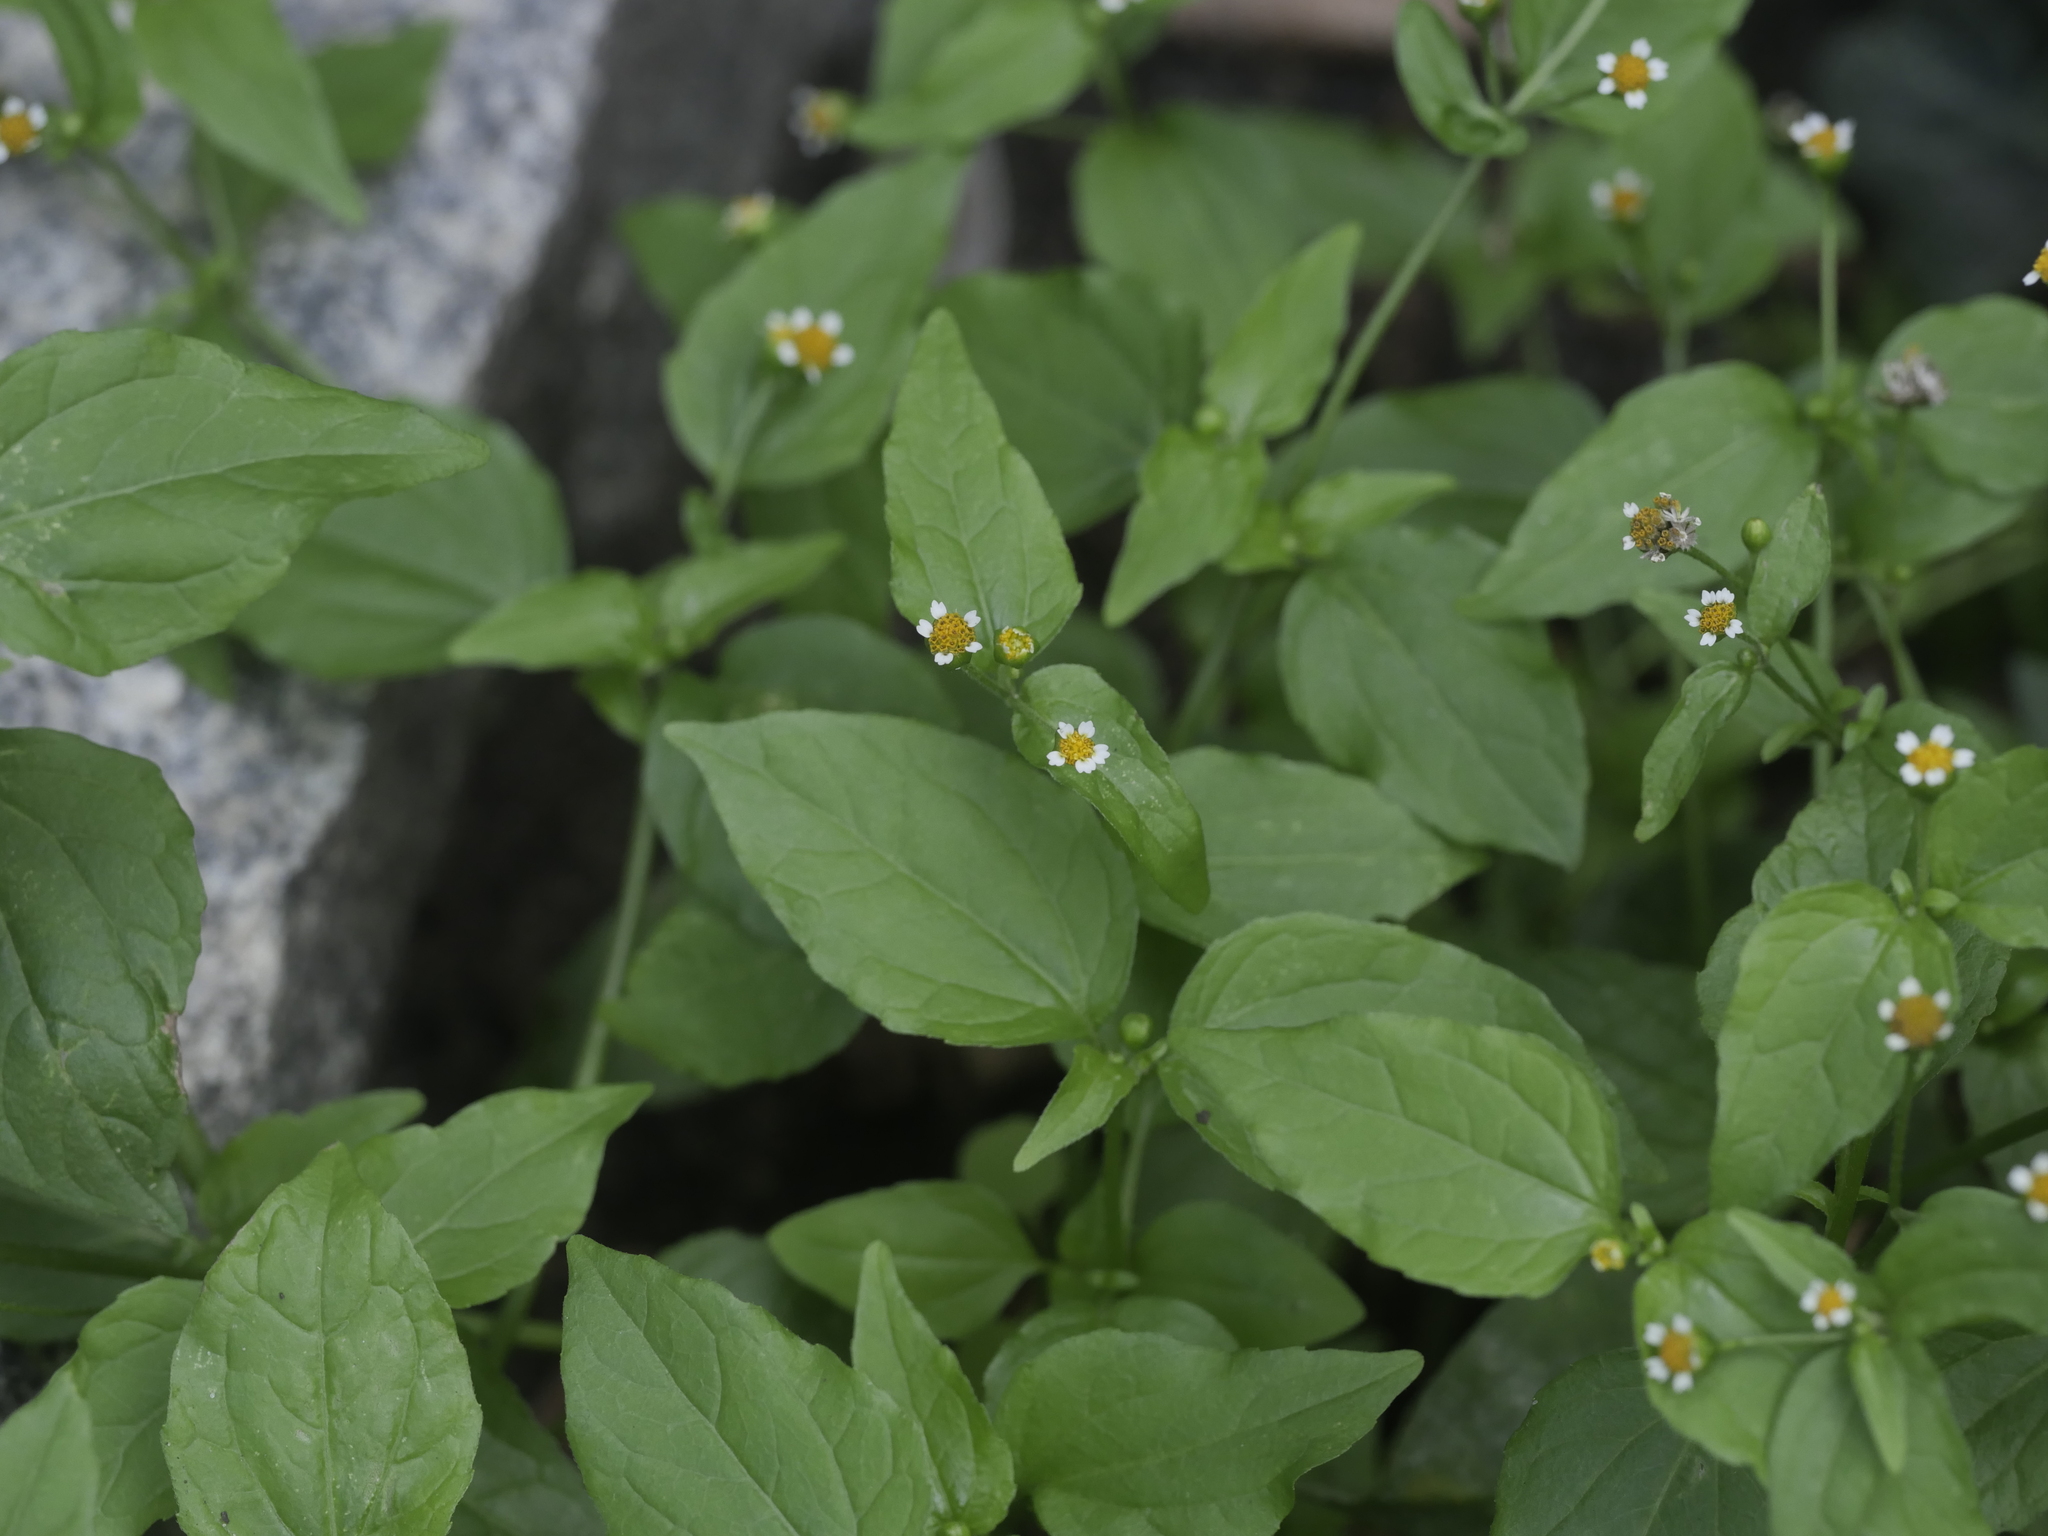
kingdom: Plantae
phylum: Tracheophyta
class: Magnoliopsida
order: Asterales
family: Asteraceae
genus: Galinsoga
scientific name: Galinsoga parviflora
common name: Gallant soldier
